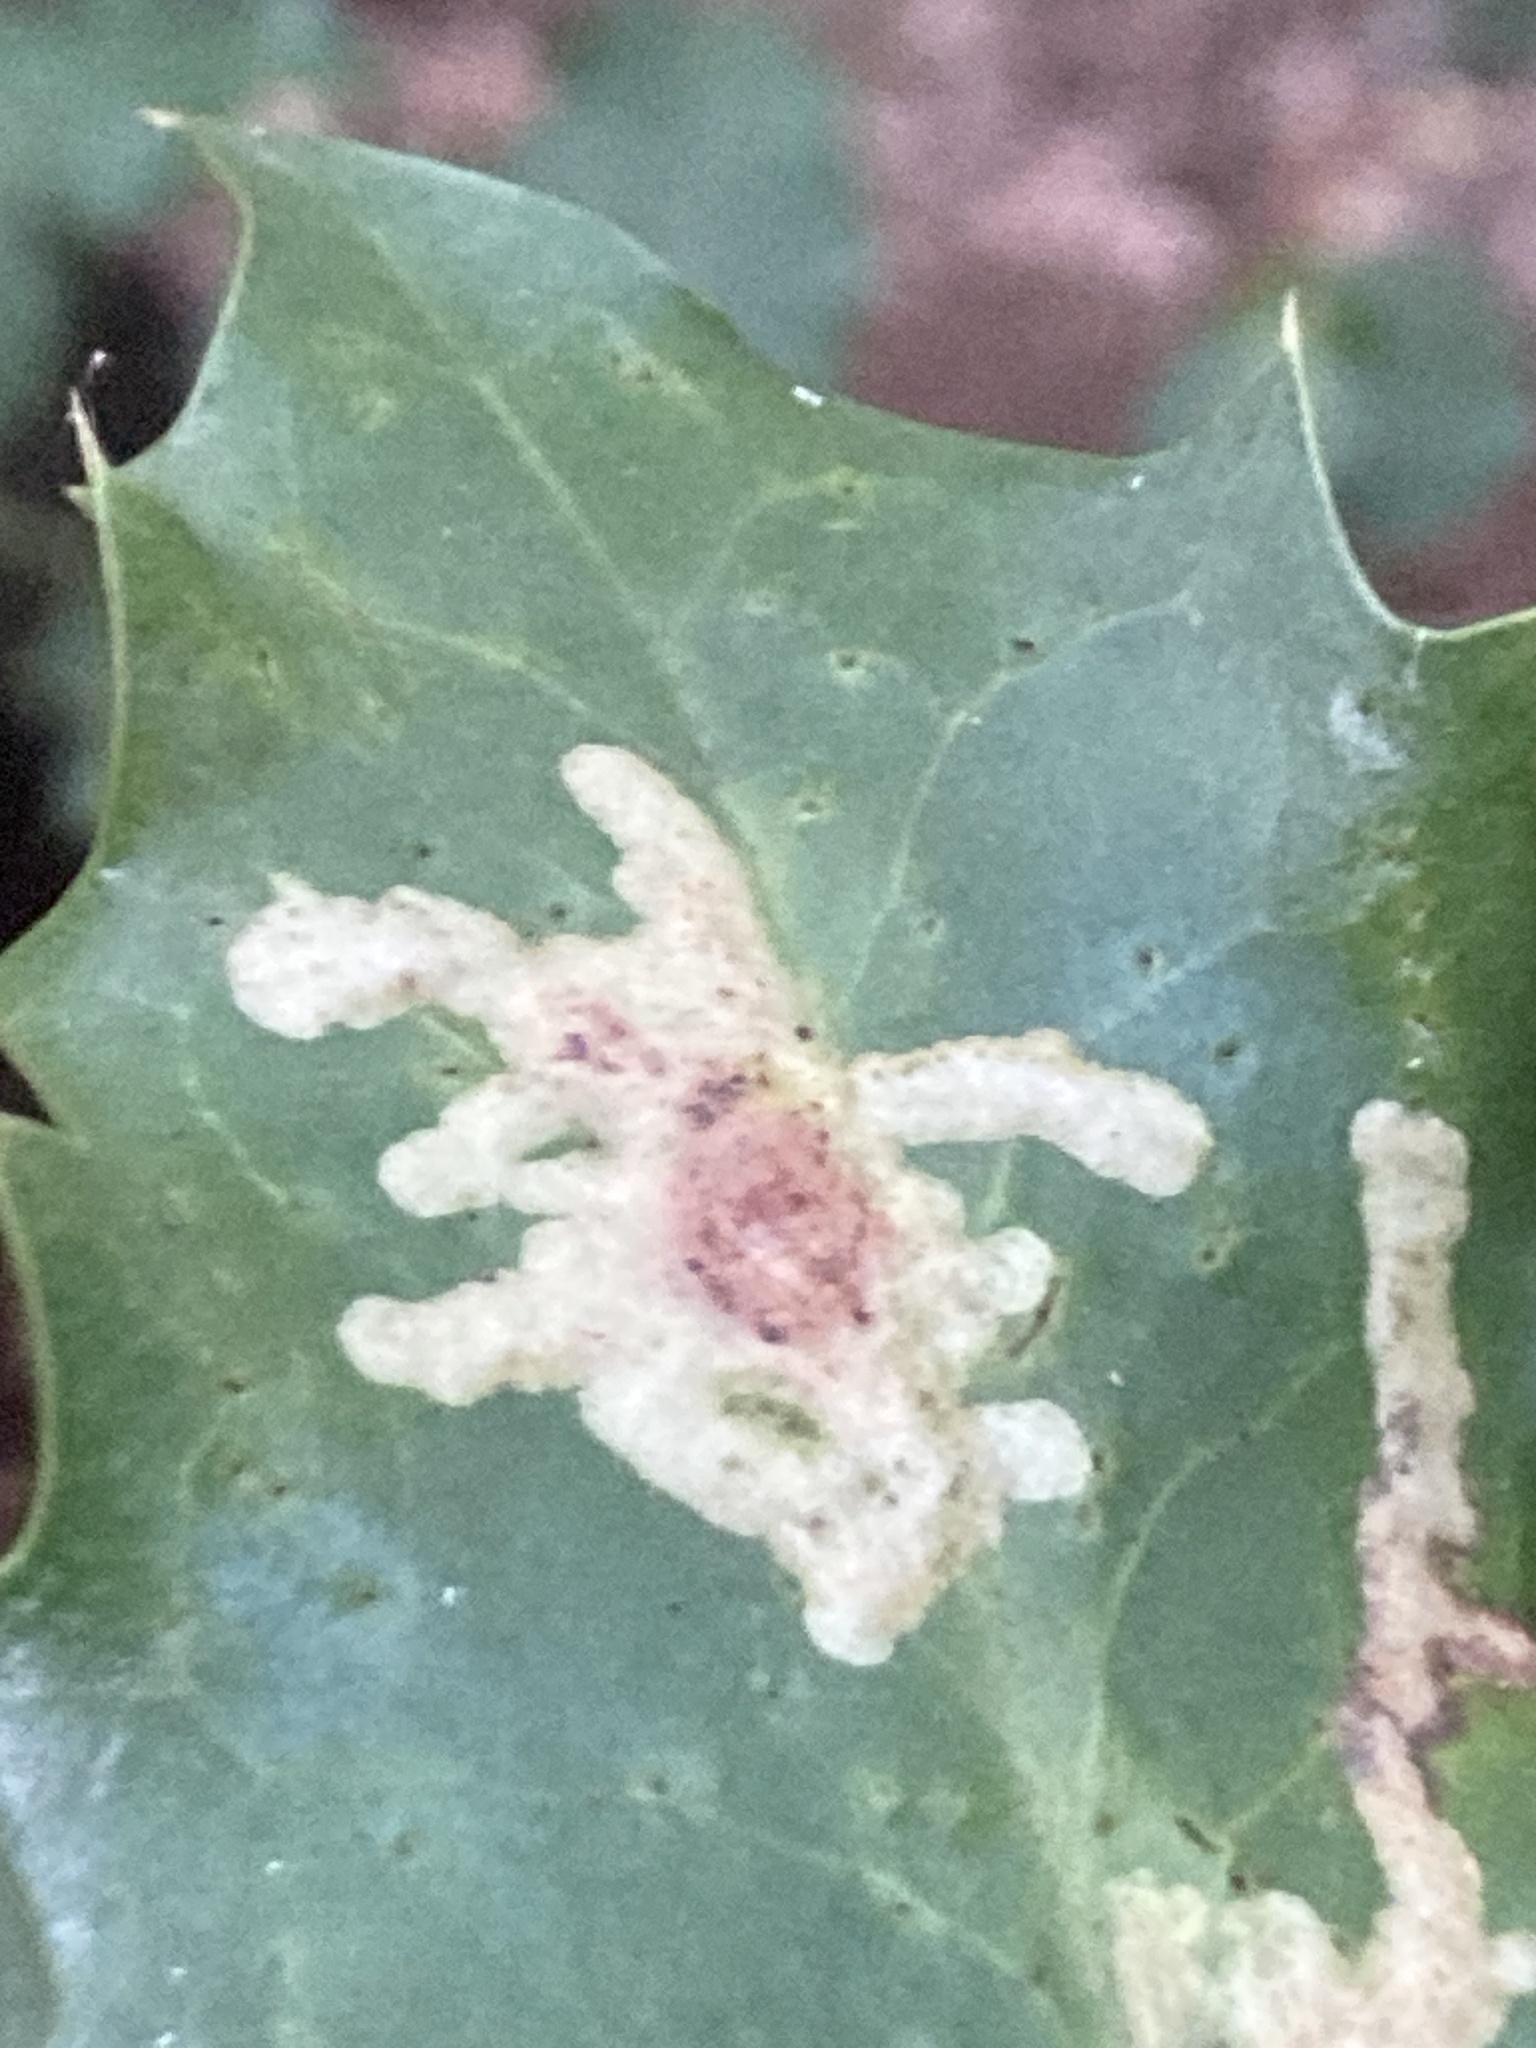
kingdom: Animalia
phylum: Arthropoda
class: Insecta
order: Diptera
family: Agromyzidae
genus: Phytomyza
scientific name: Phytomyza ilicis
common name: Holly leafminer
